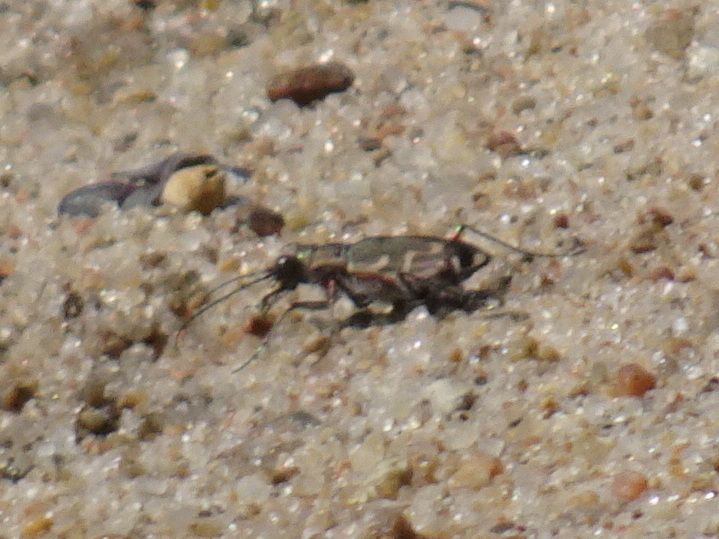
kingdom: Animalia
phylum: Arthropoda
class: Insecta
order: Coleoptera
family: Carabidae
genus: Cicindela
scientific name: Cicindela repanda
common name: Bronzed tiger beetle
